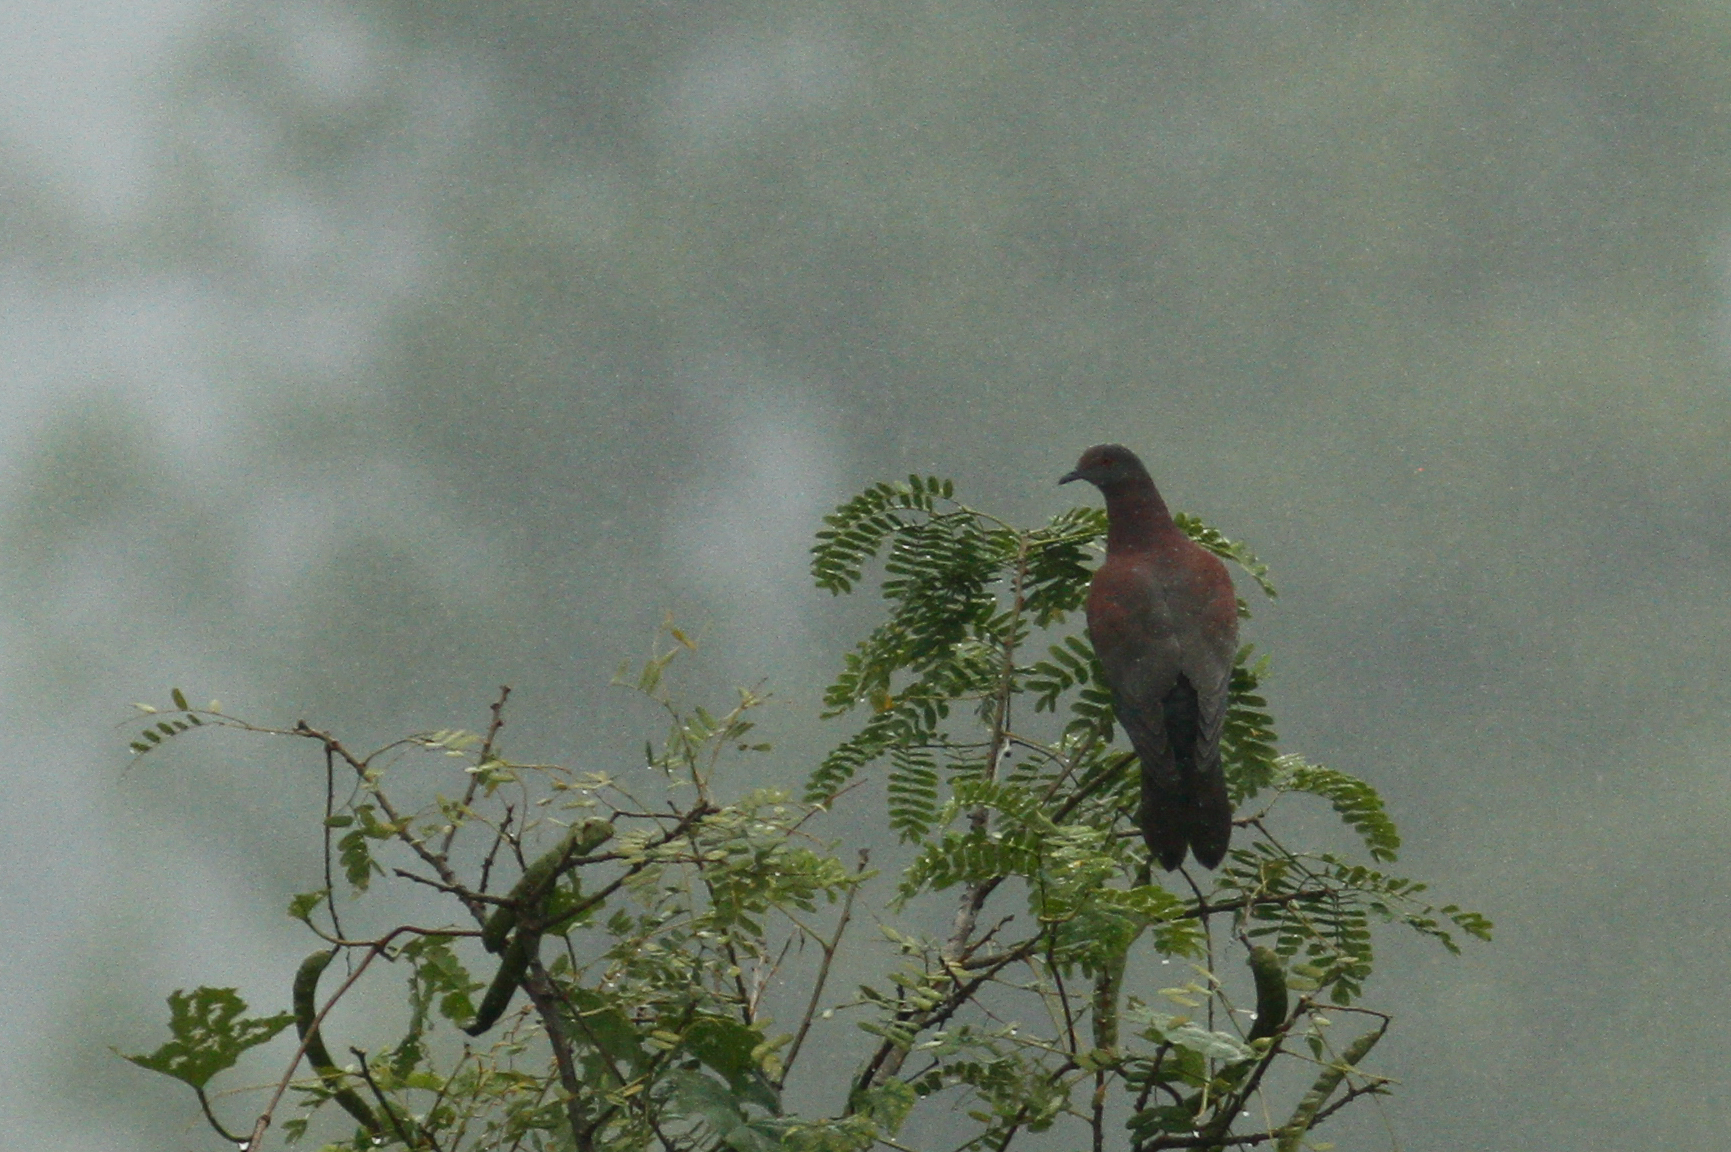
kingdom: Animalia
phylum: Chordata
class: Aves
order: Columbiformes
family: Columbidae
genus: Patagioenas
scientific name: Patagioenas cayennensis
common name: Pale-vented pigeon
